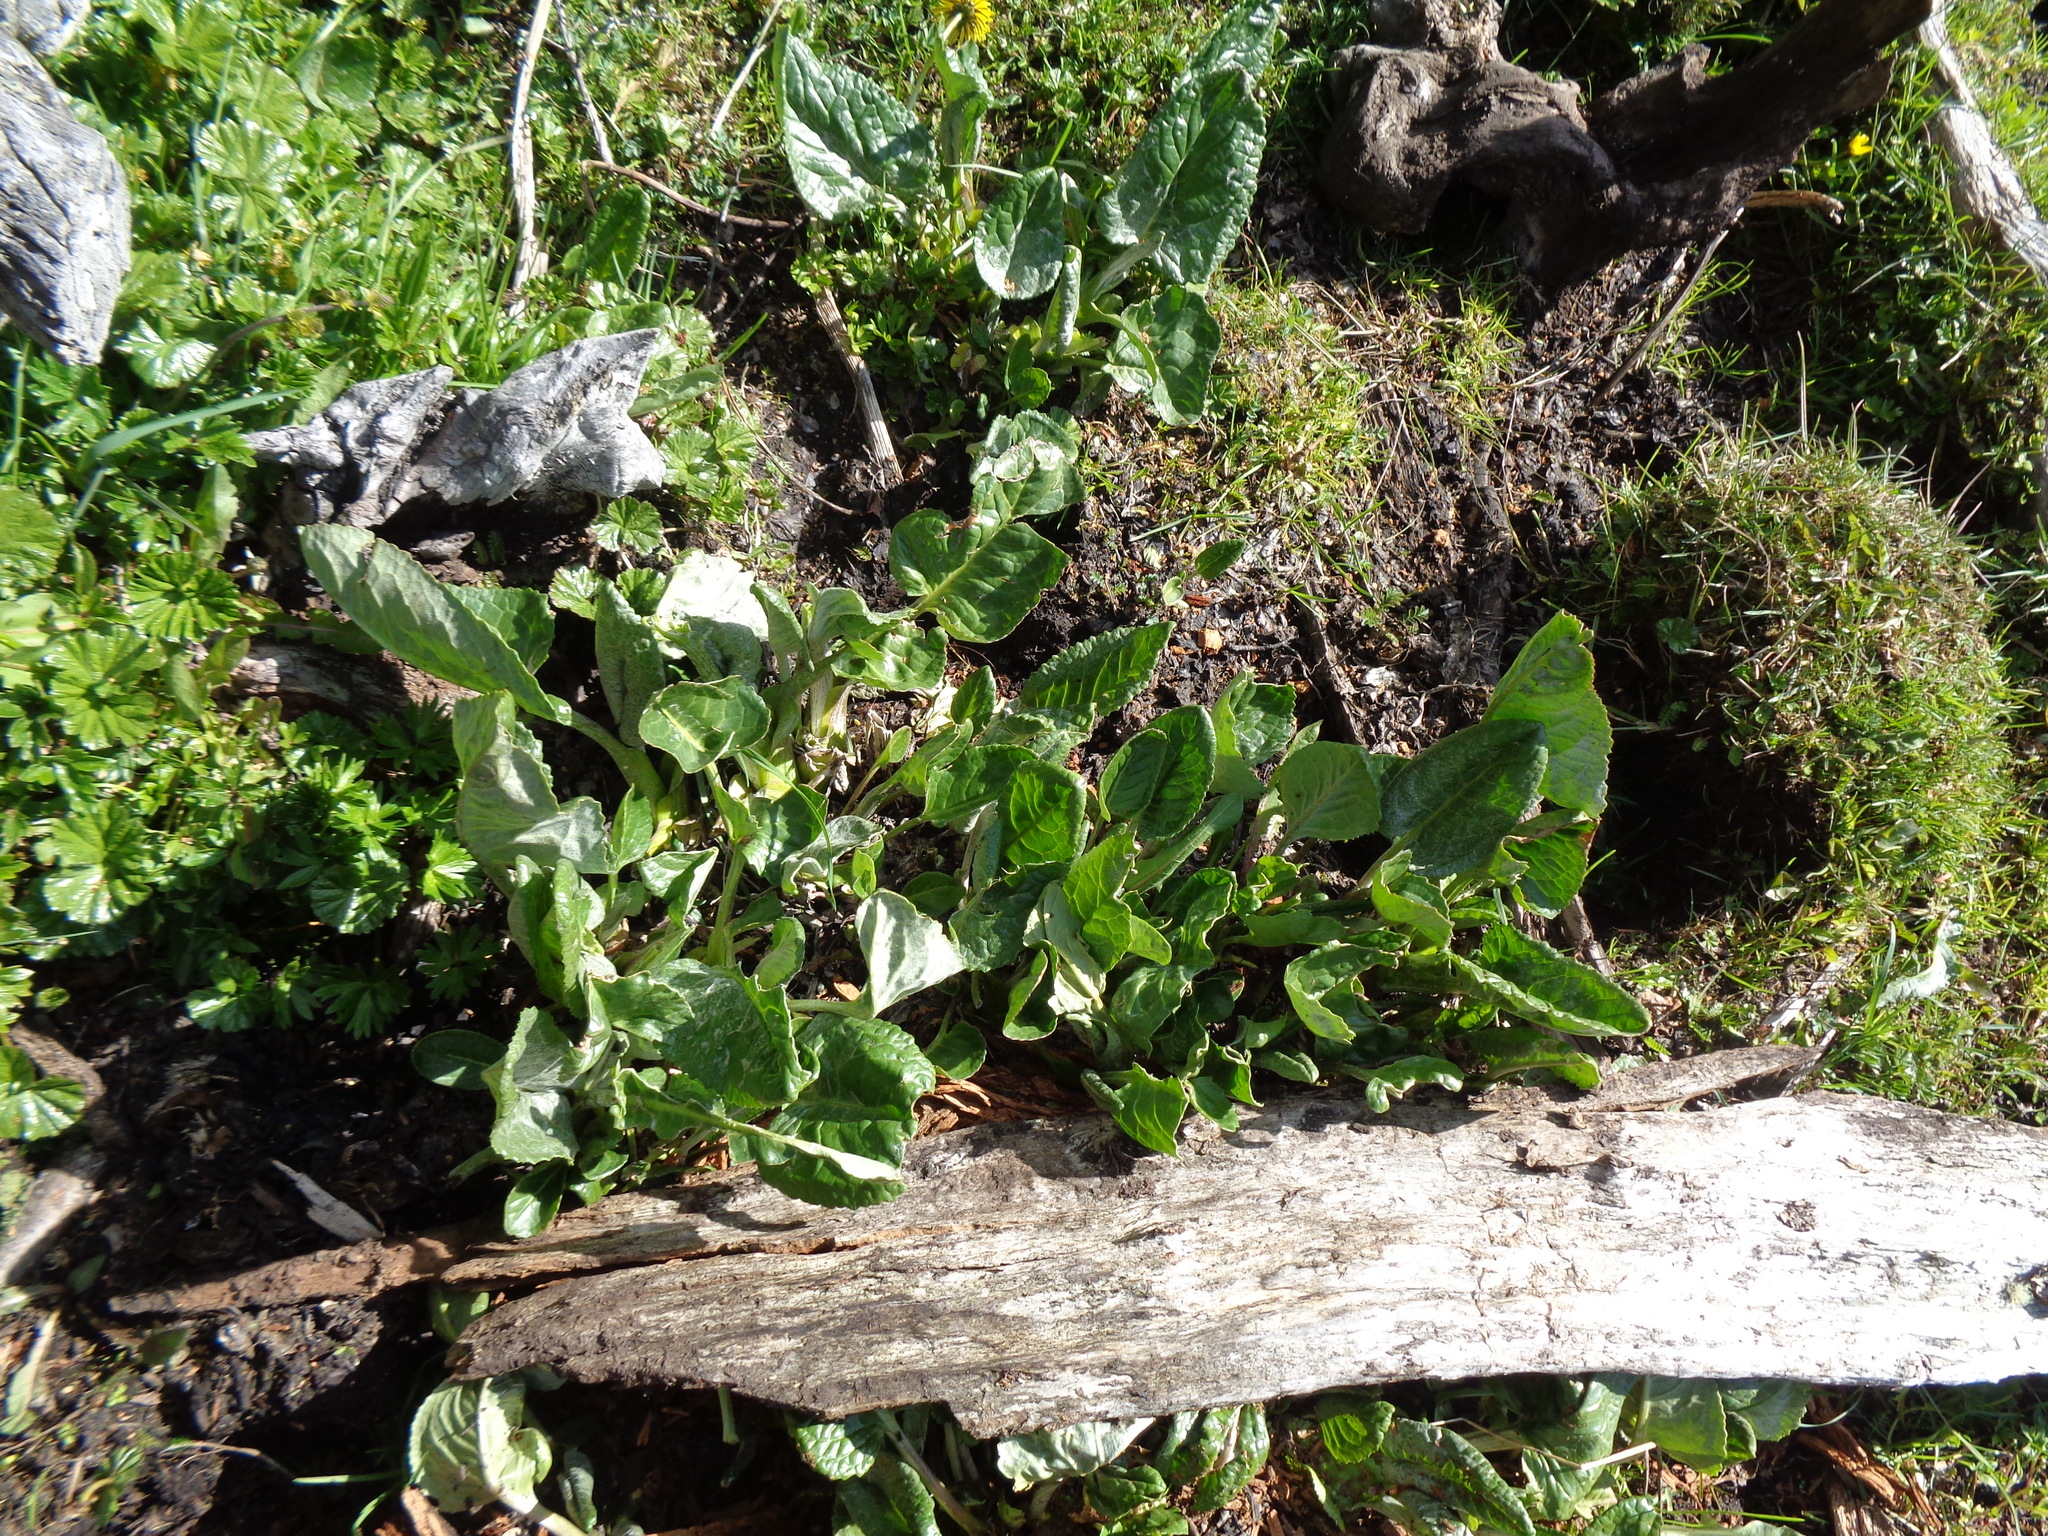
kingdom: Plantae
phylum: Tracheophyta
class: Magnoliopsida
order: Asterales
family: Asteraceae
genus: Senecio
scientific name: Senecio smithii
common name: Magellan ragwort
